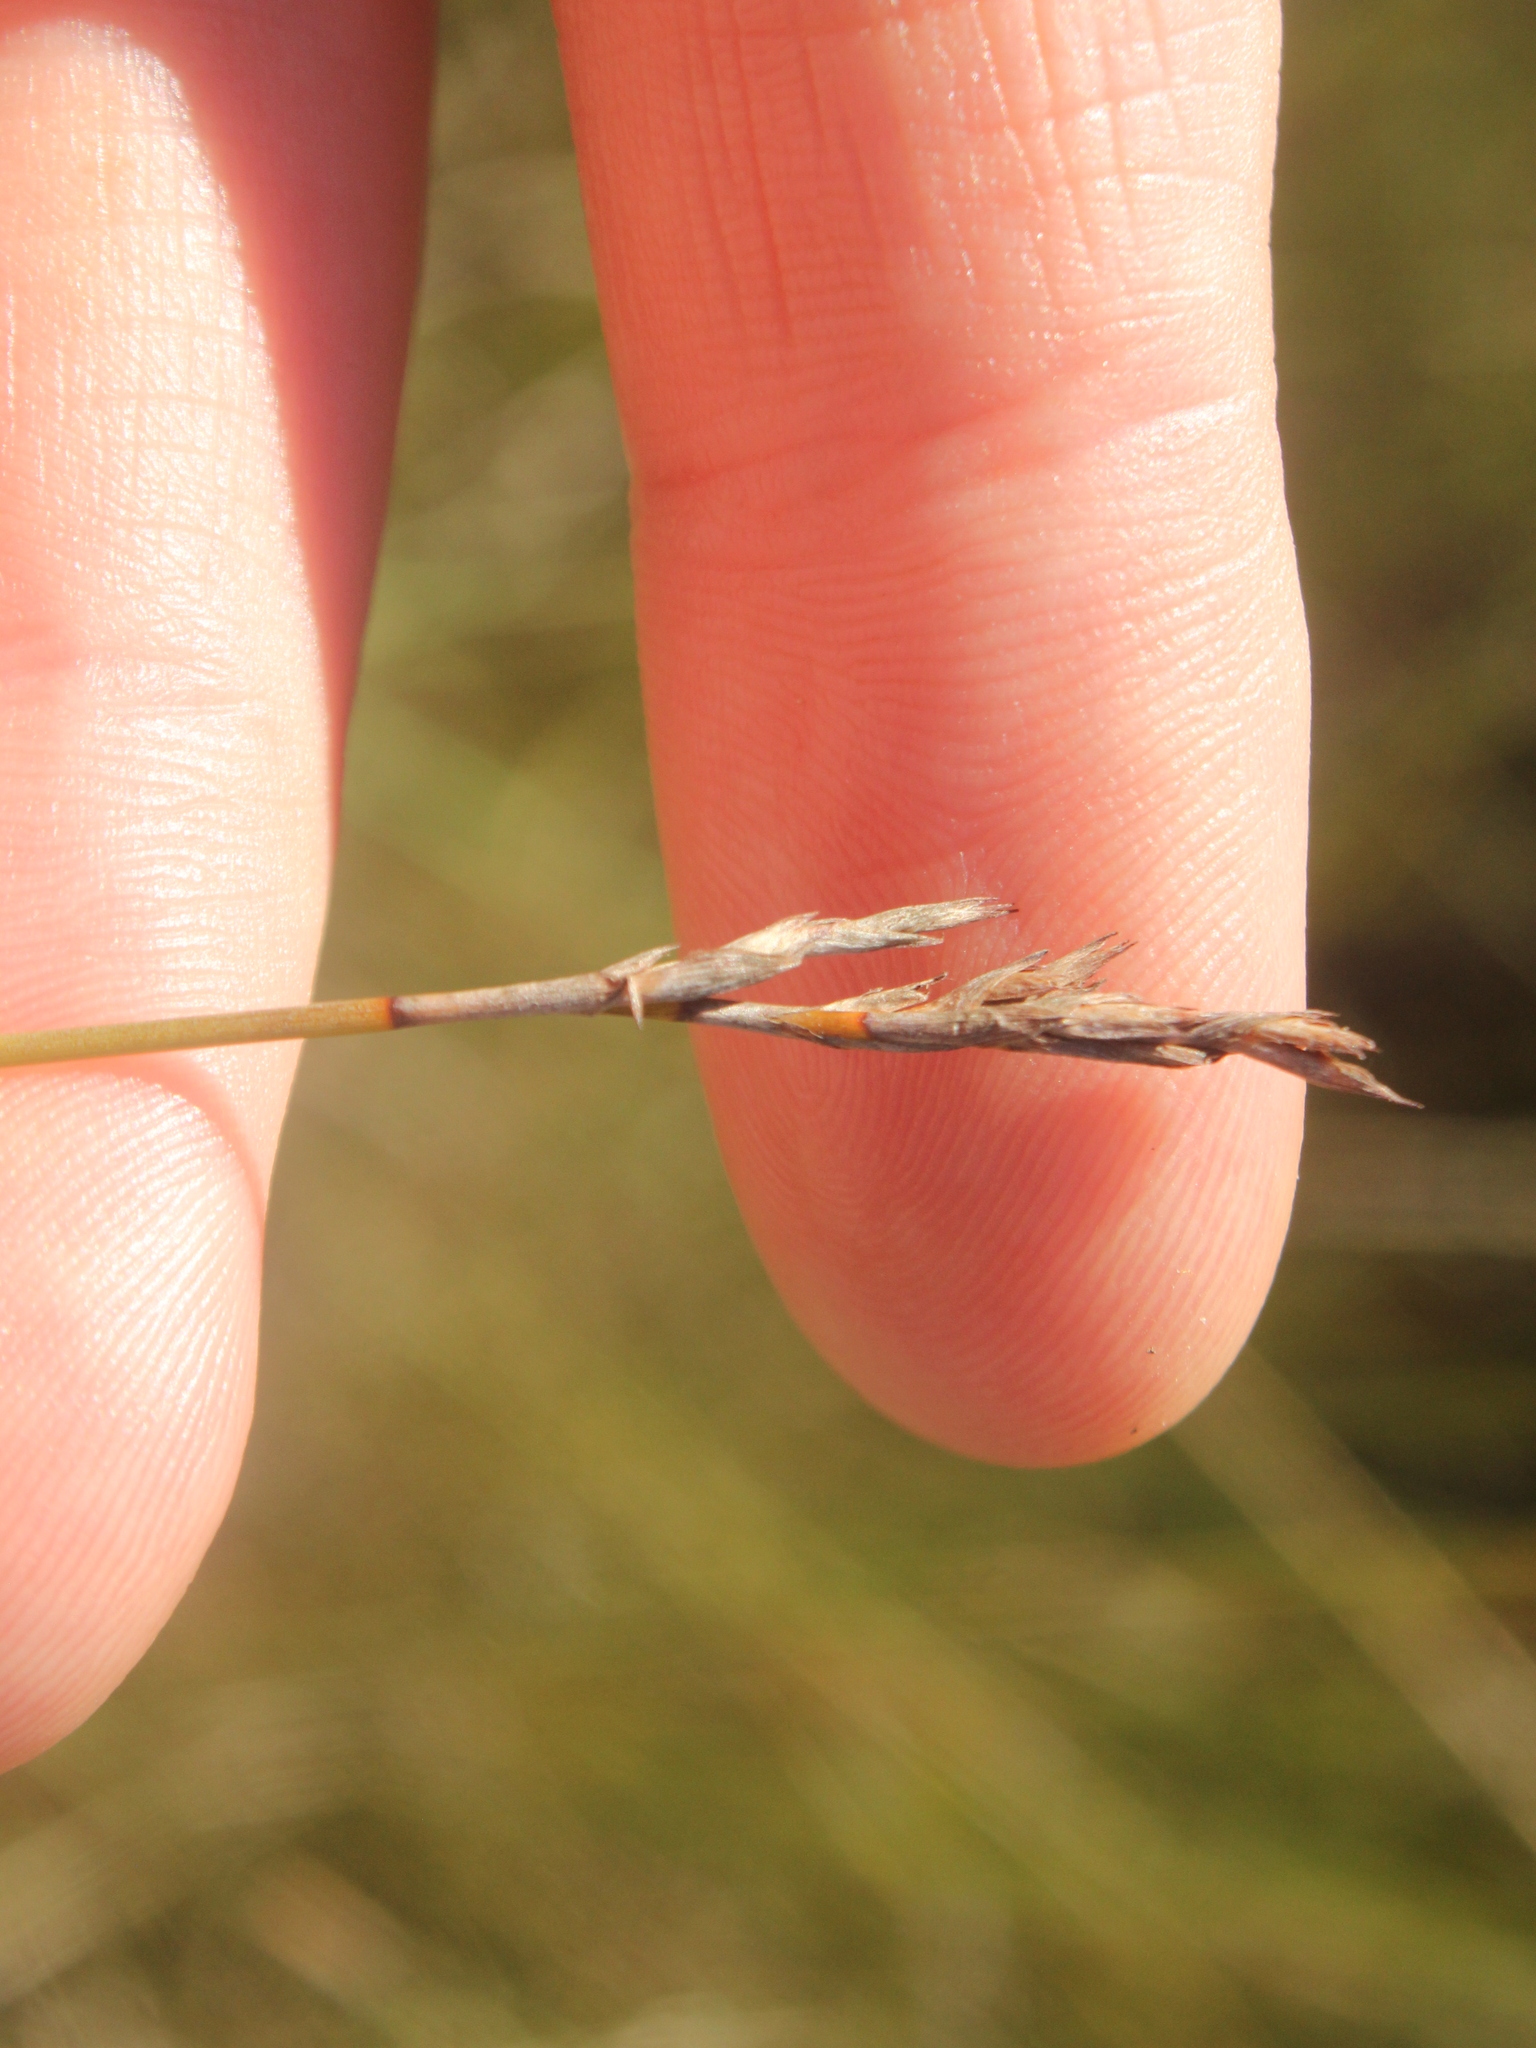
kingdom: Plantae
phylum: Tracheophyta
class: Liliopsida
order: Poales
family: Cyperaceae
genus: Machaerina
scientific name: Machaerina juncea
